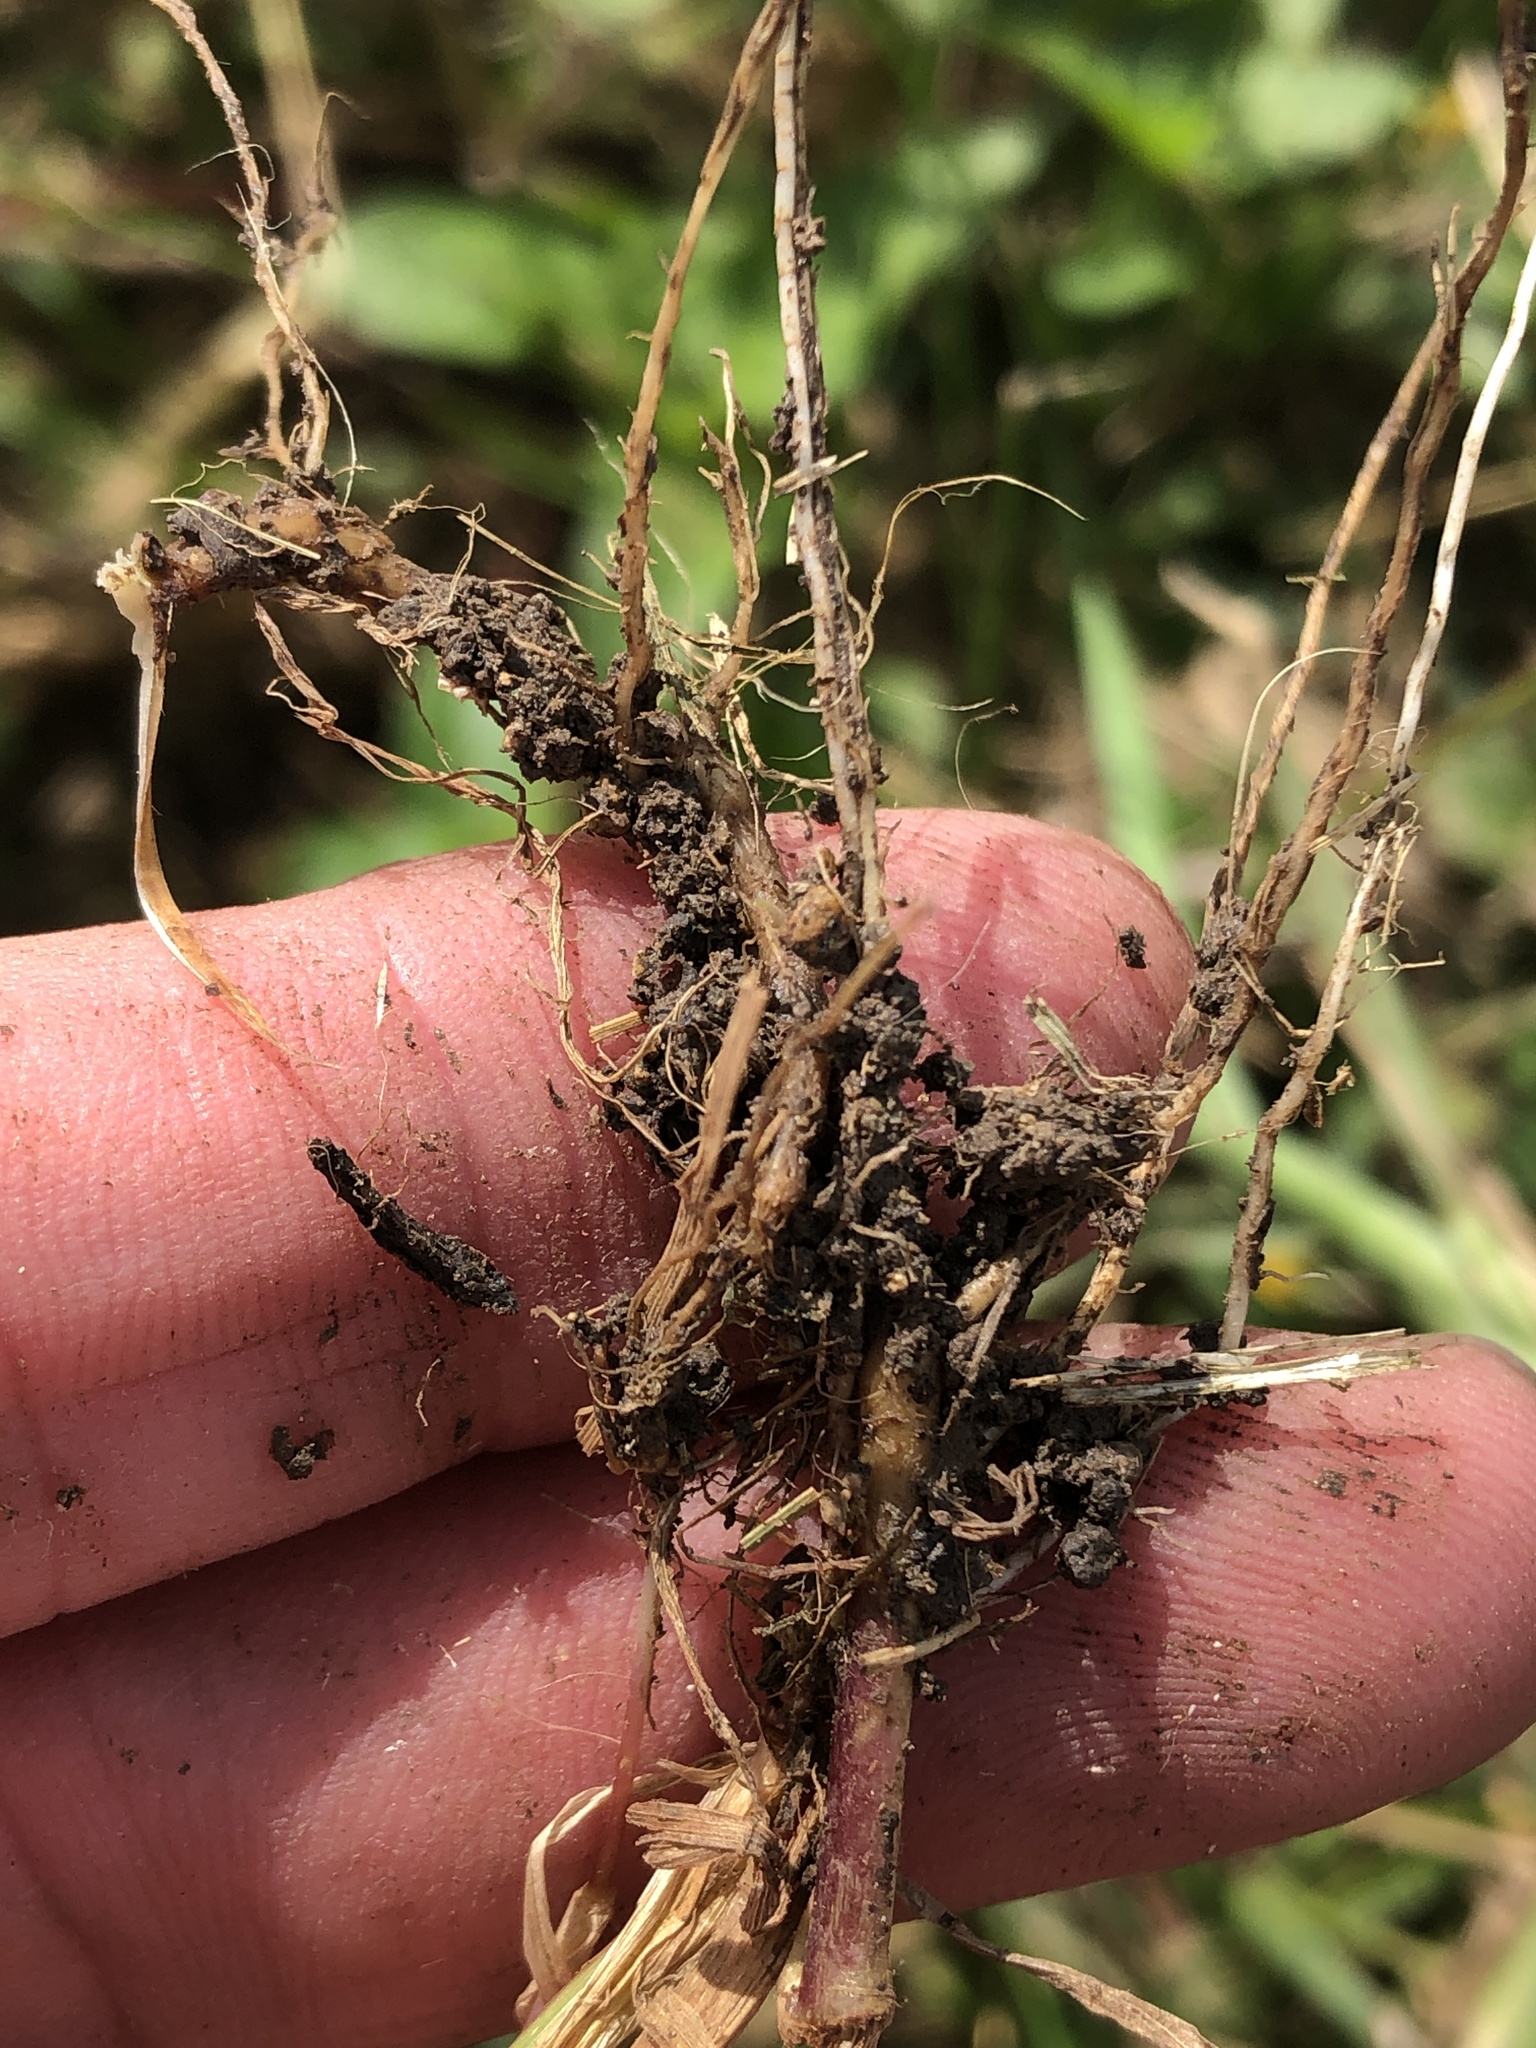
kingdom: Plantae
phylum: Tracheophyta
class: Liliopsida
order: Poales
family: Poaceae
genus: Setaria
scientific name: Setaria parviflora
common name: Knotroot bristle-grass
